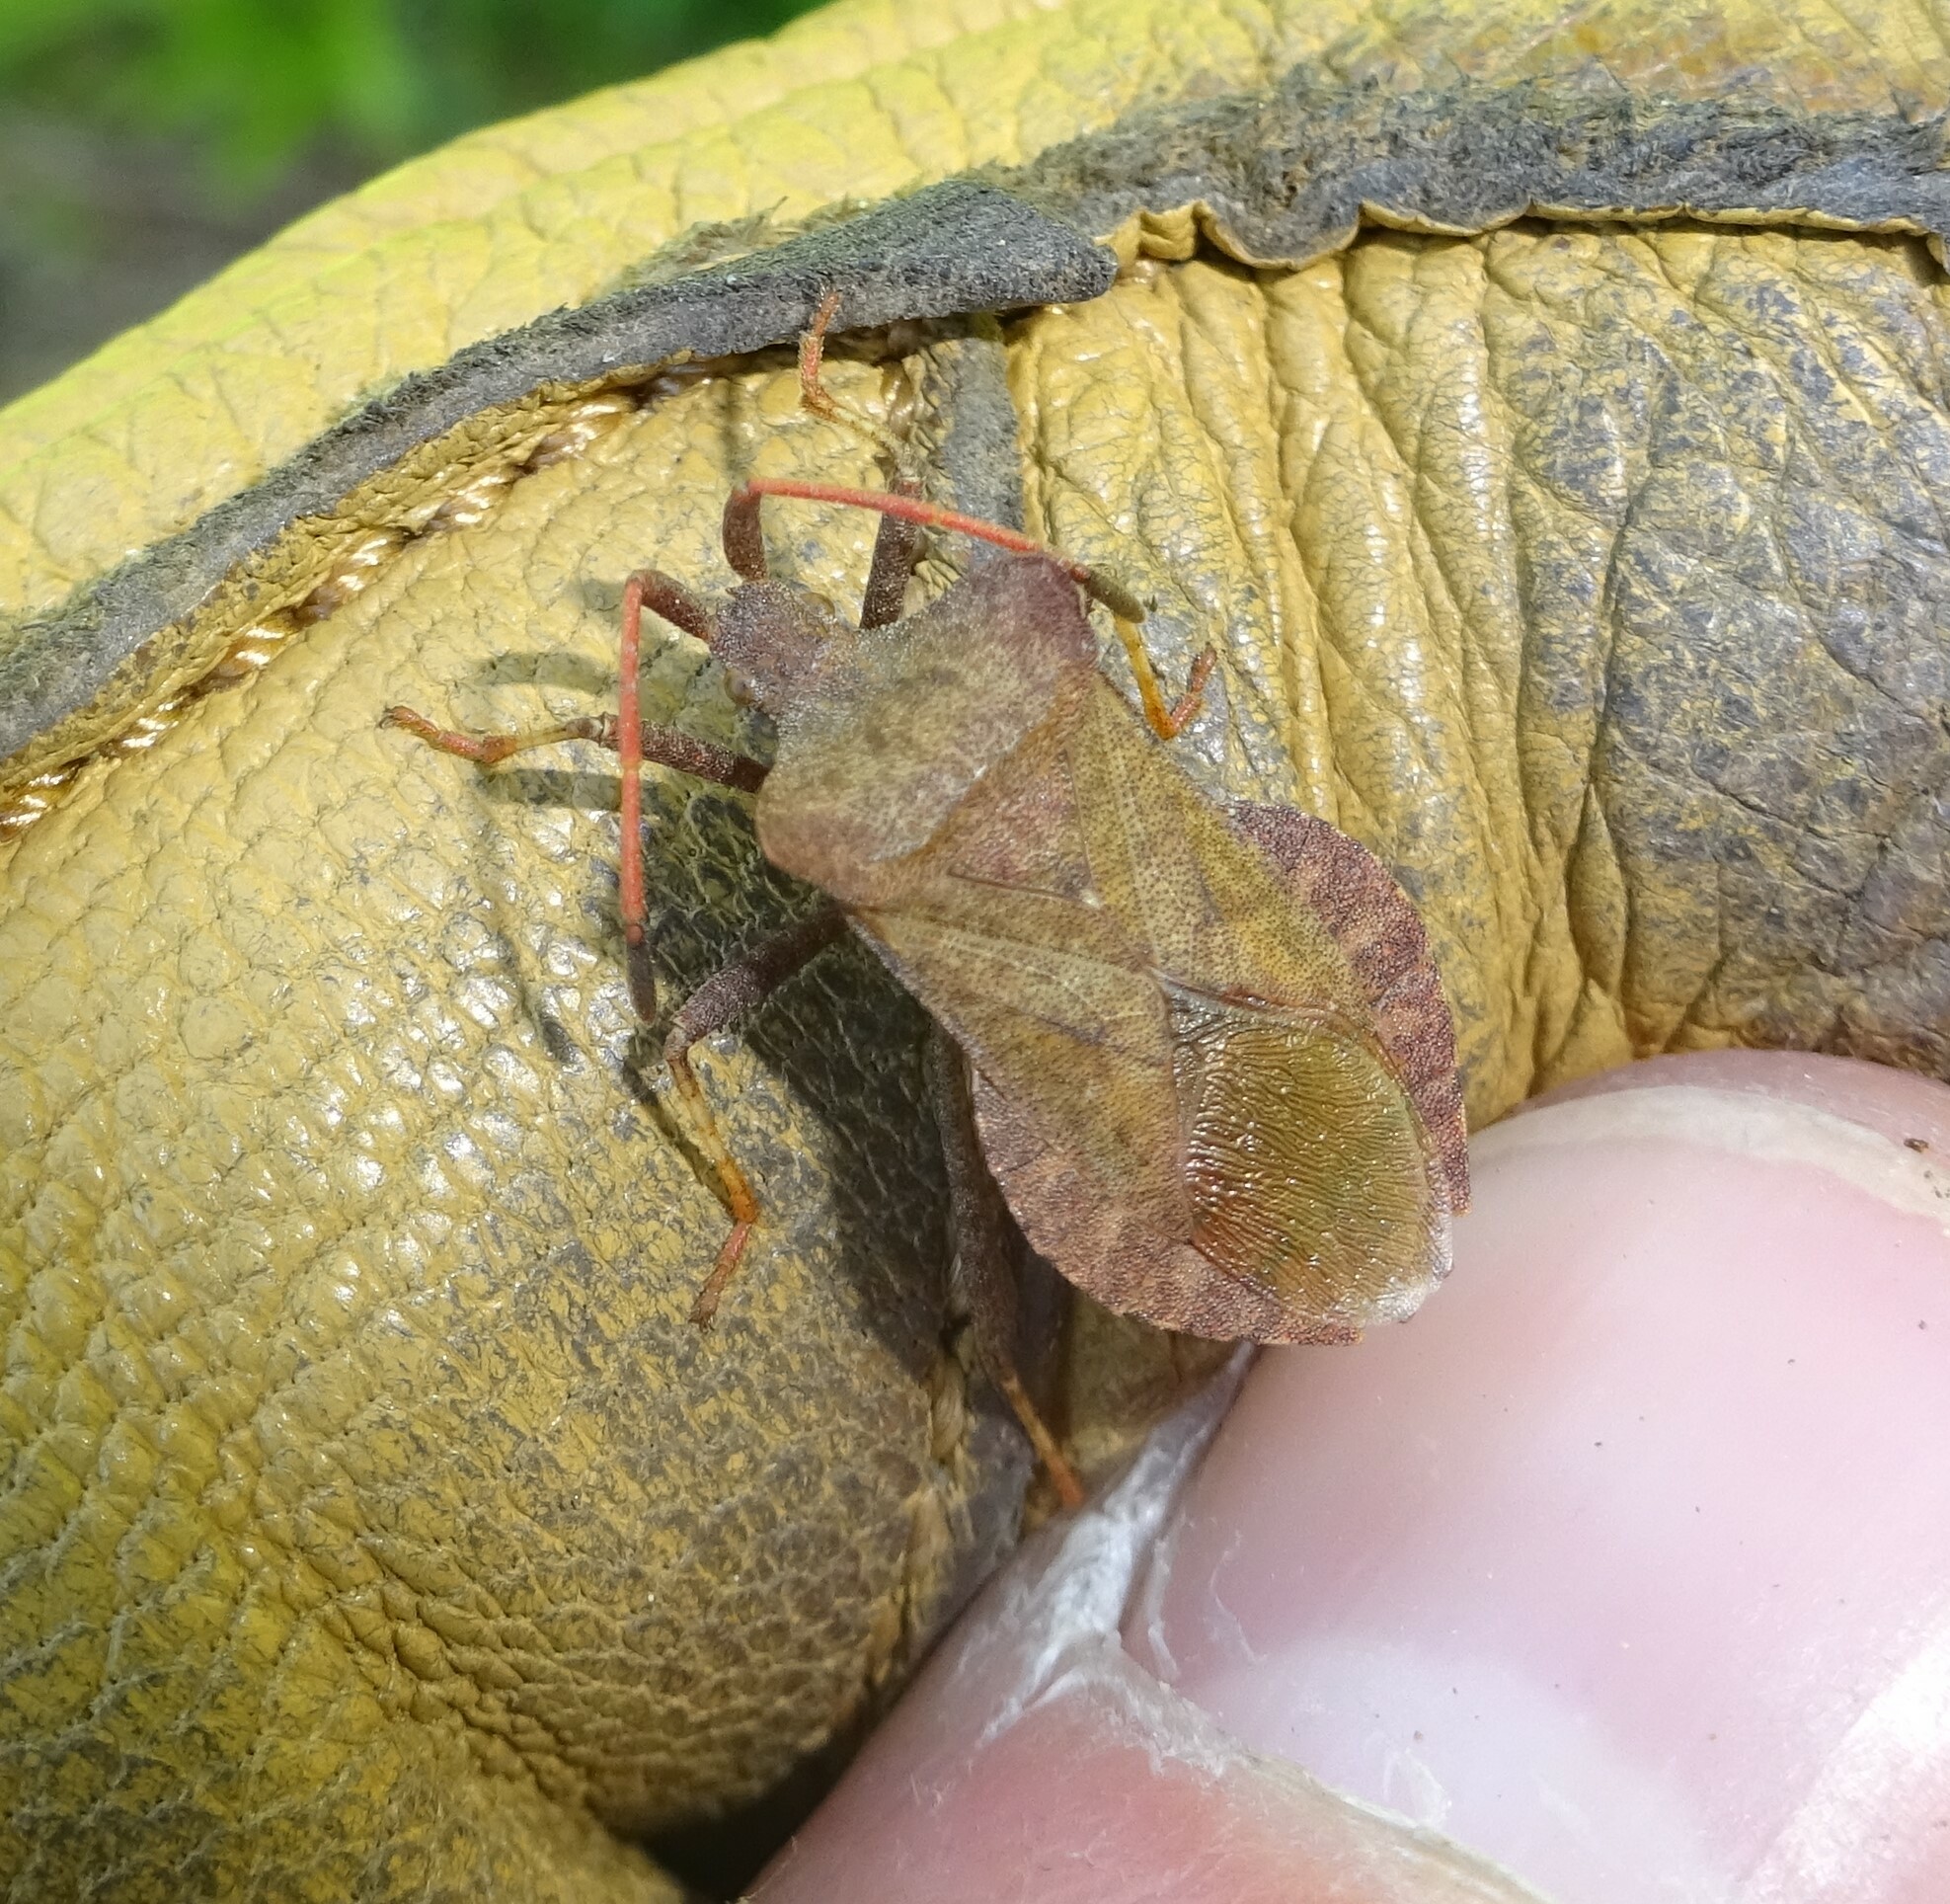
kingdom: Animalia
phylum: Arthropoda
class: Insecta
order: Hemiptera
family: Coreidae
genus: Coreus
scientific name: Coreus marginatus
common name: Dock bug
